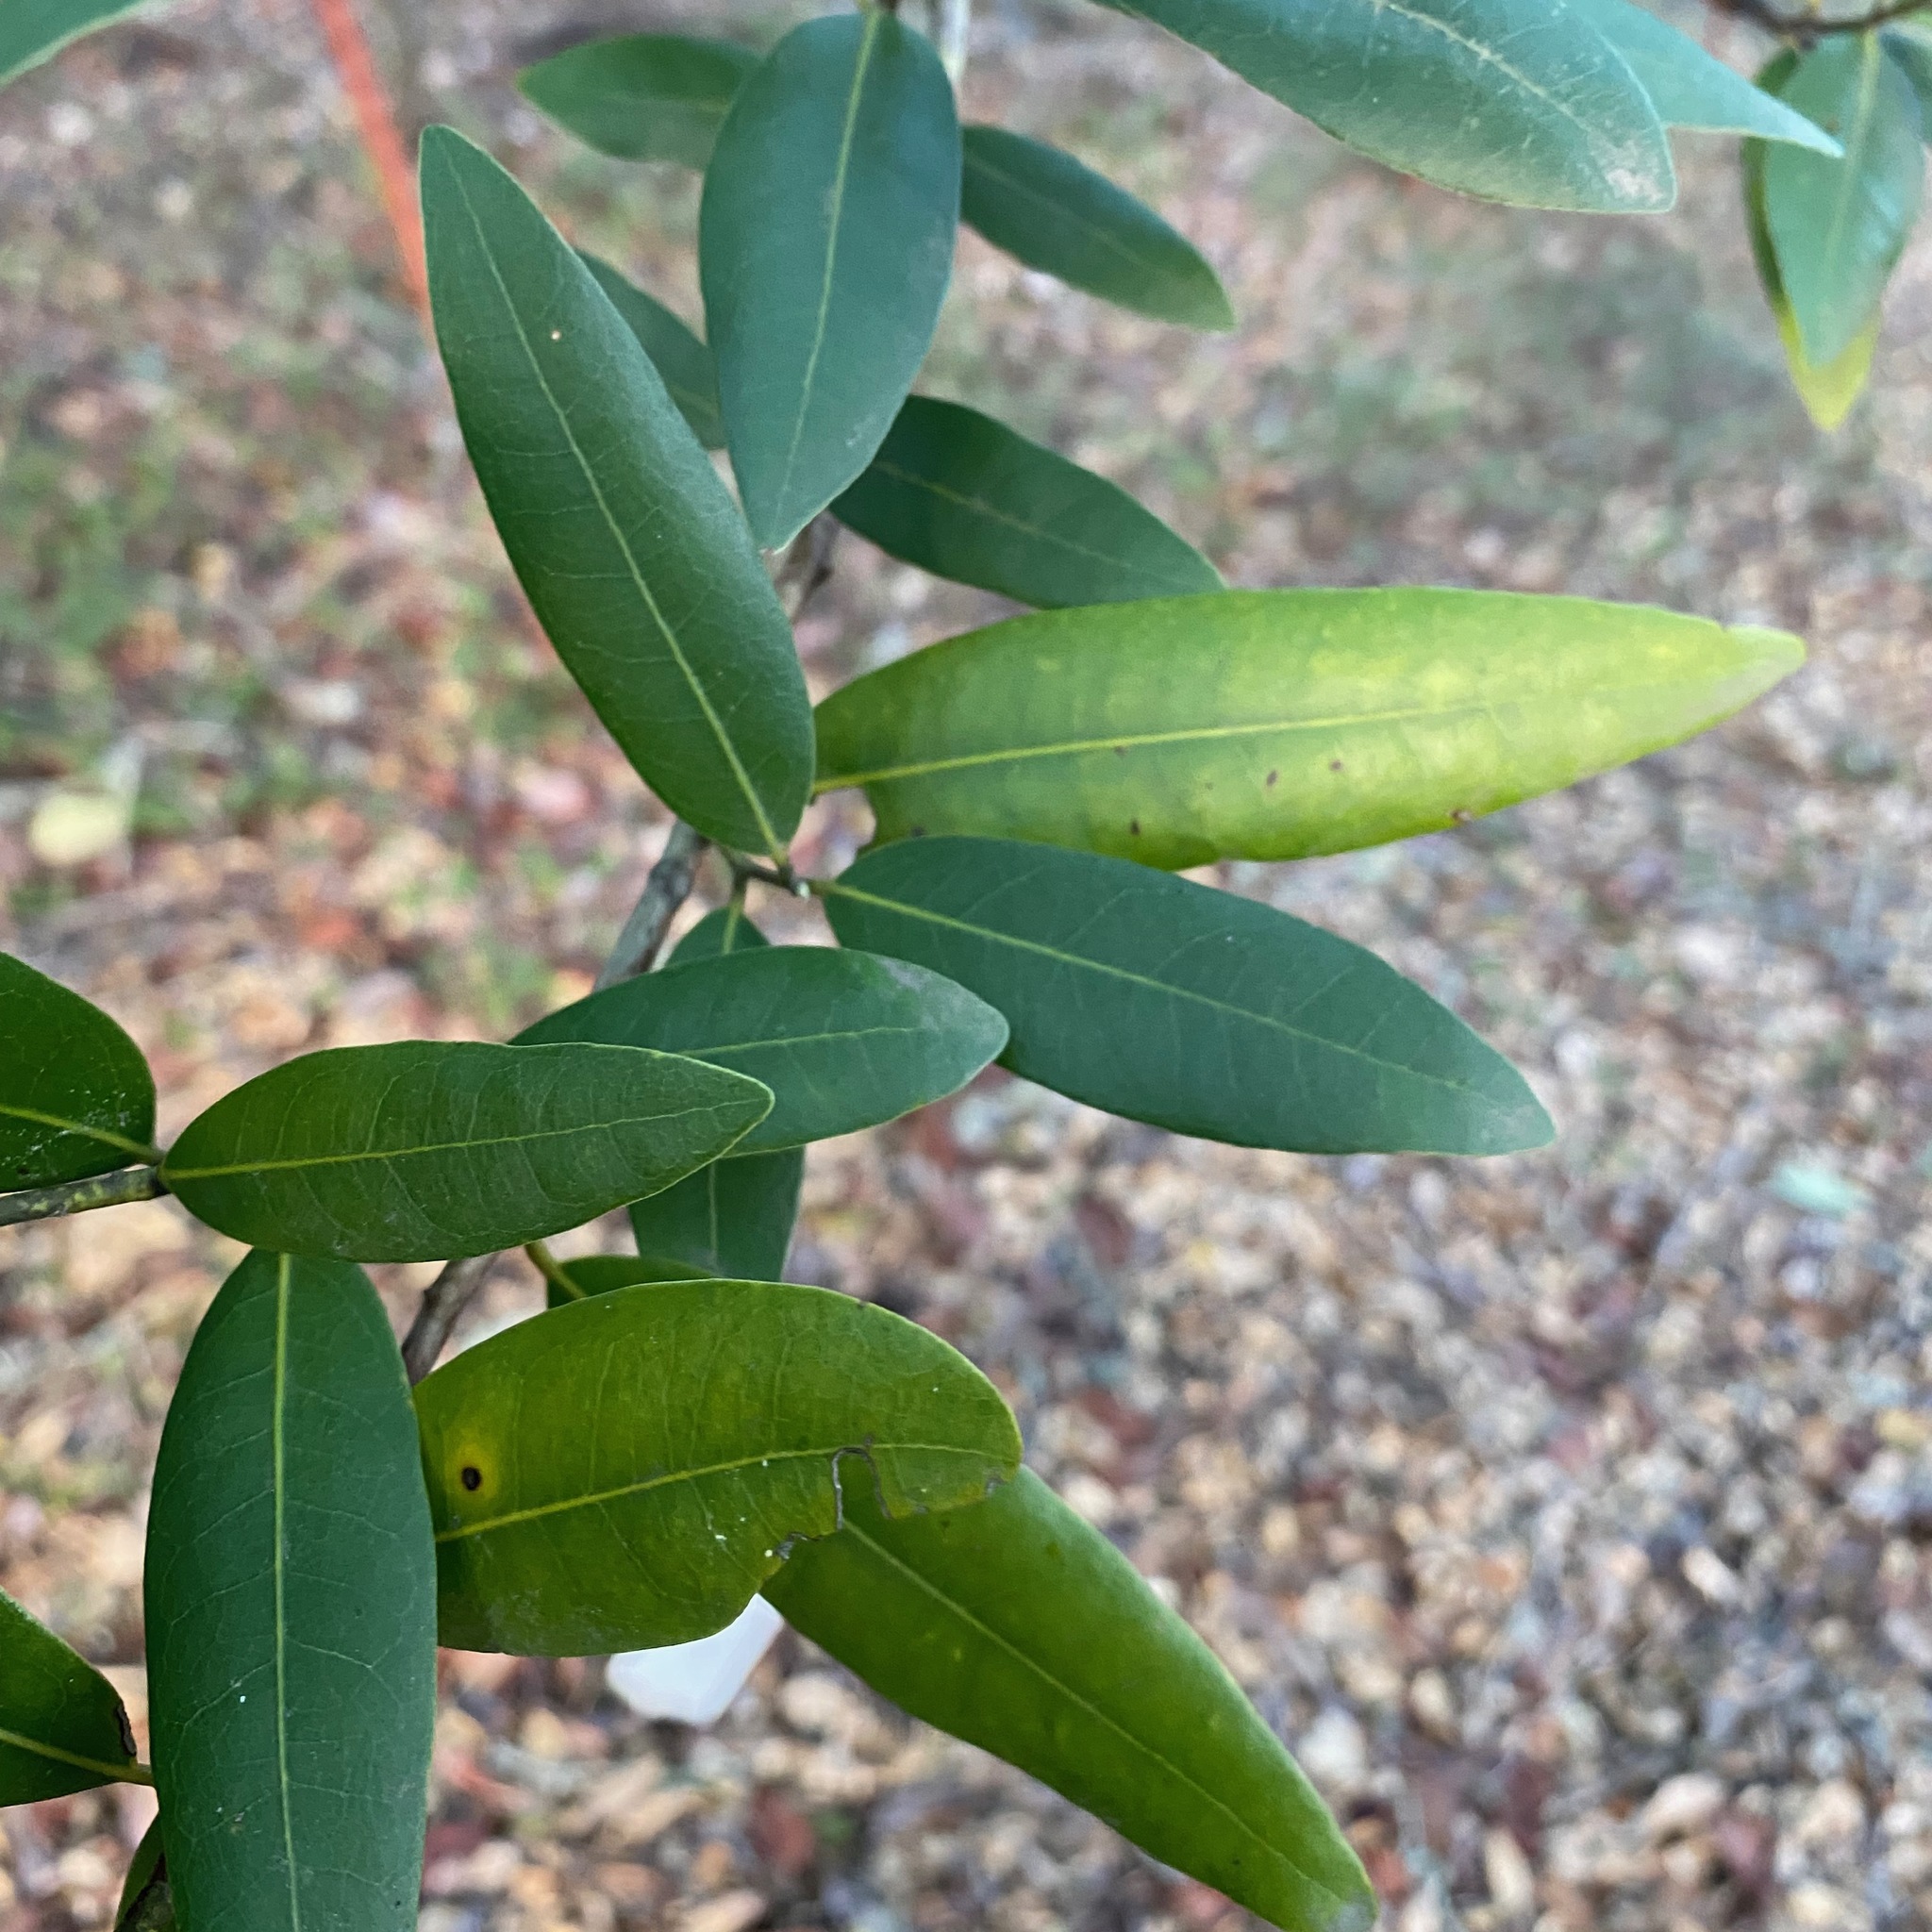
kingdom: Plantae
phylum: Tracheophyta
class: Magnoliopsida
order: Laurales
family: Lauraceae
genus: Umbellularia
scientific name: Umbellularia californica
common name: California bay
